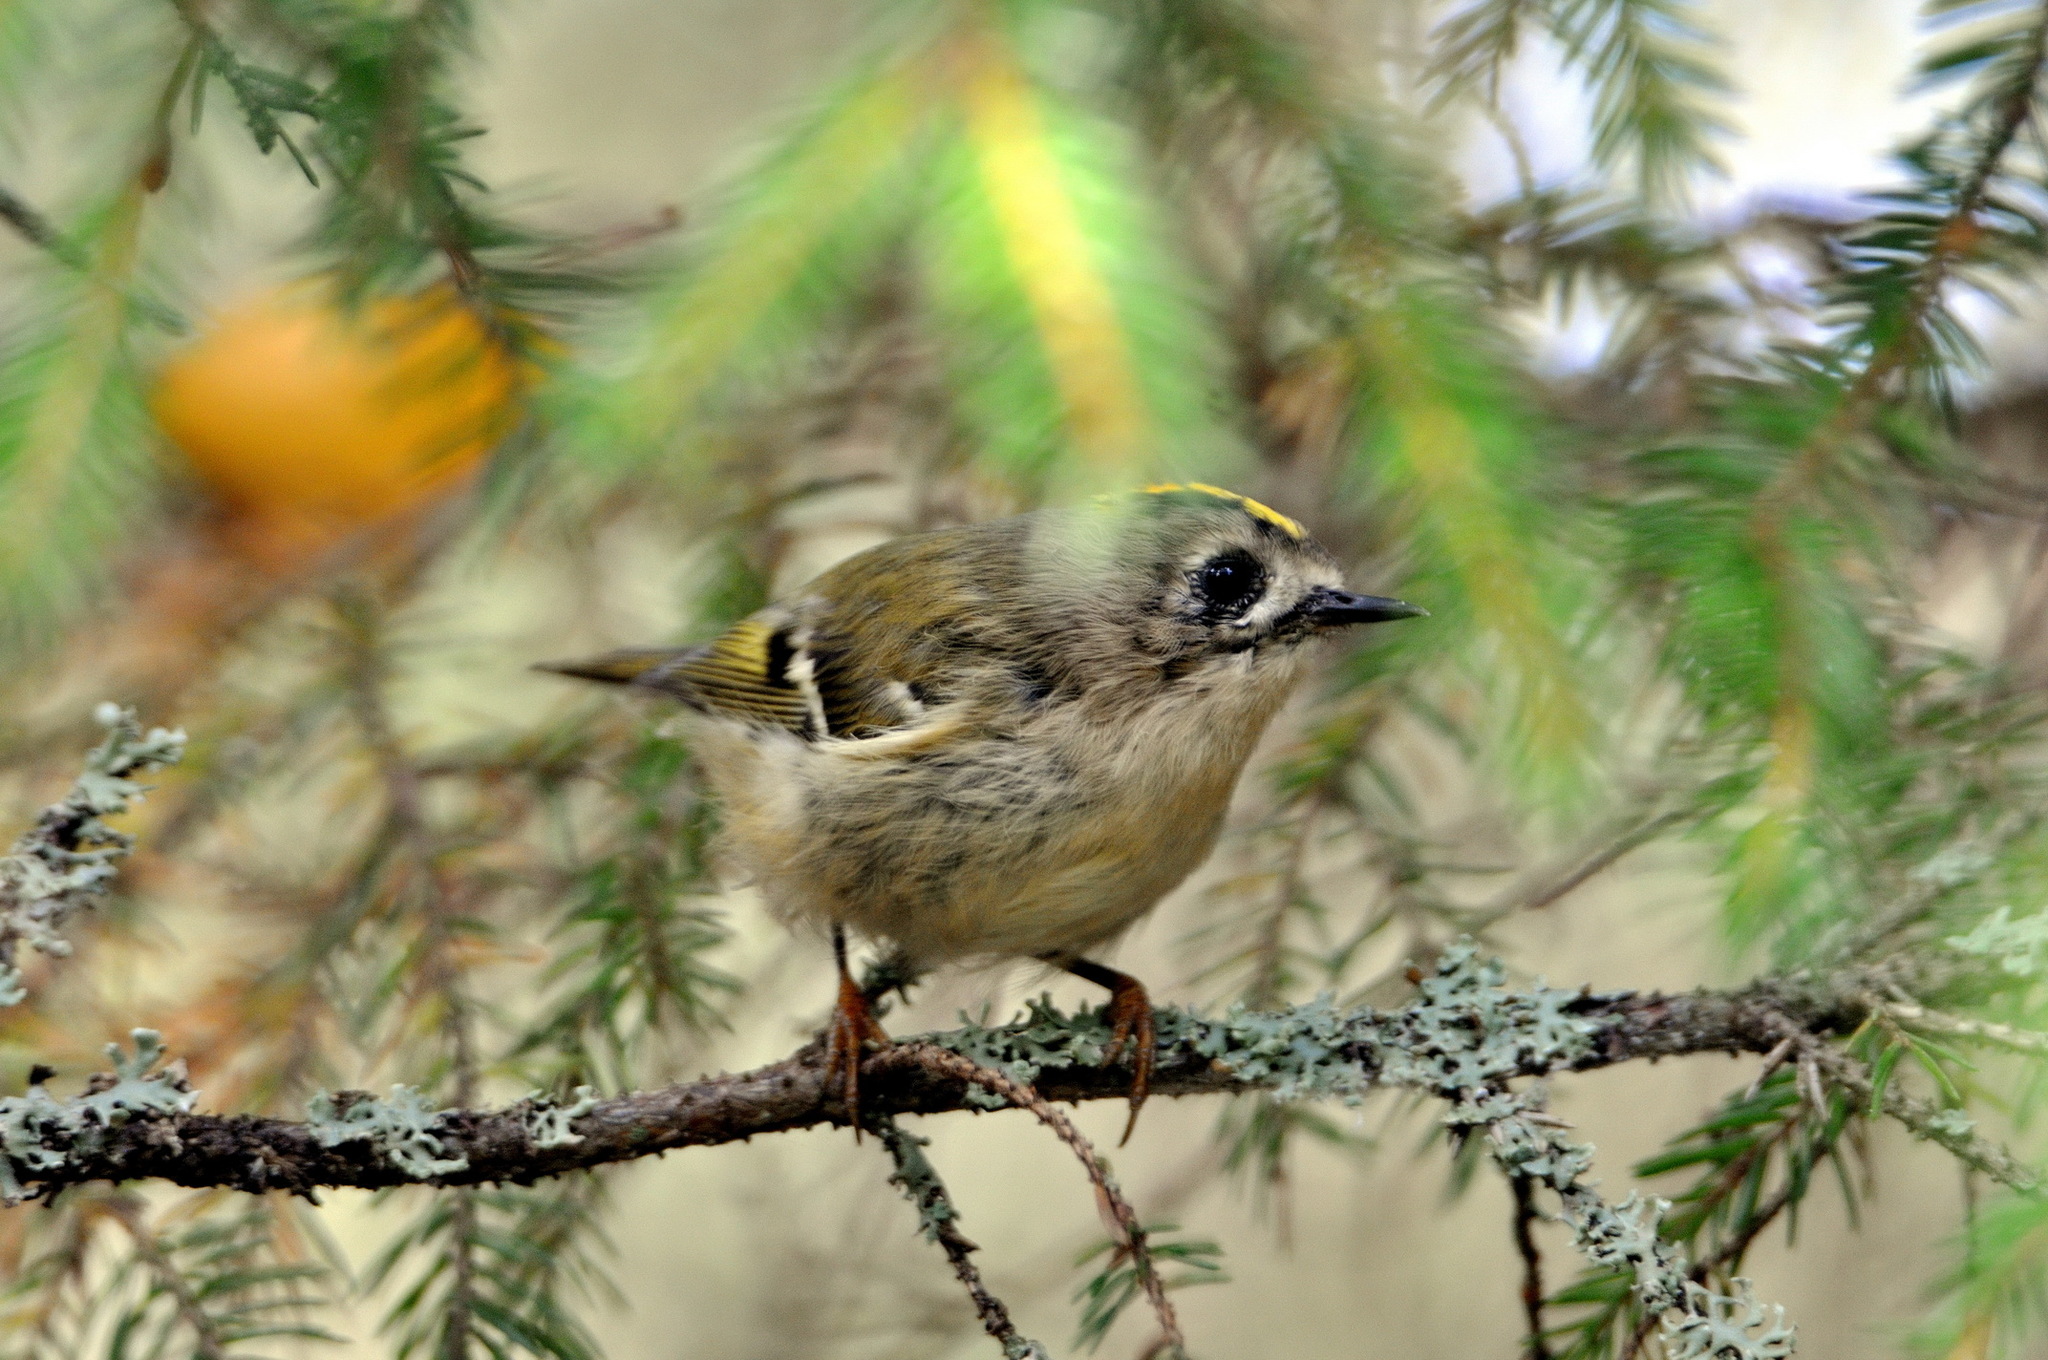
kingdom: Animalia
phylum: Chordata
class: Aves
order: Passeriformes
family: Regulidae
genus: Regulus
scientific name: Regulus regulus
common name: Goldcrest
